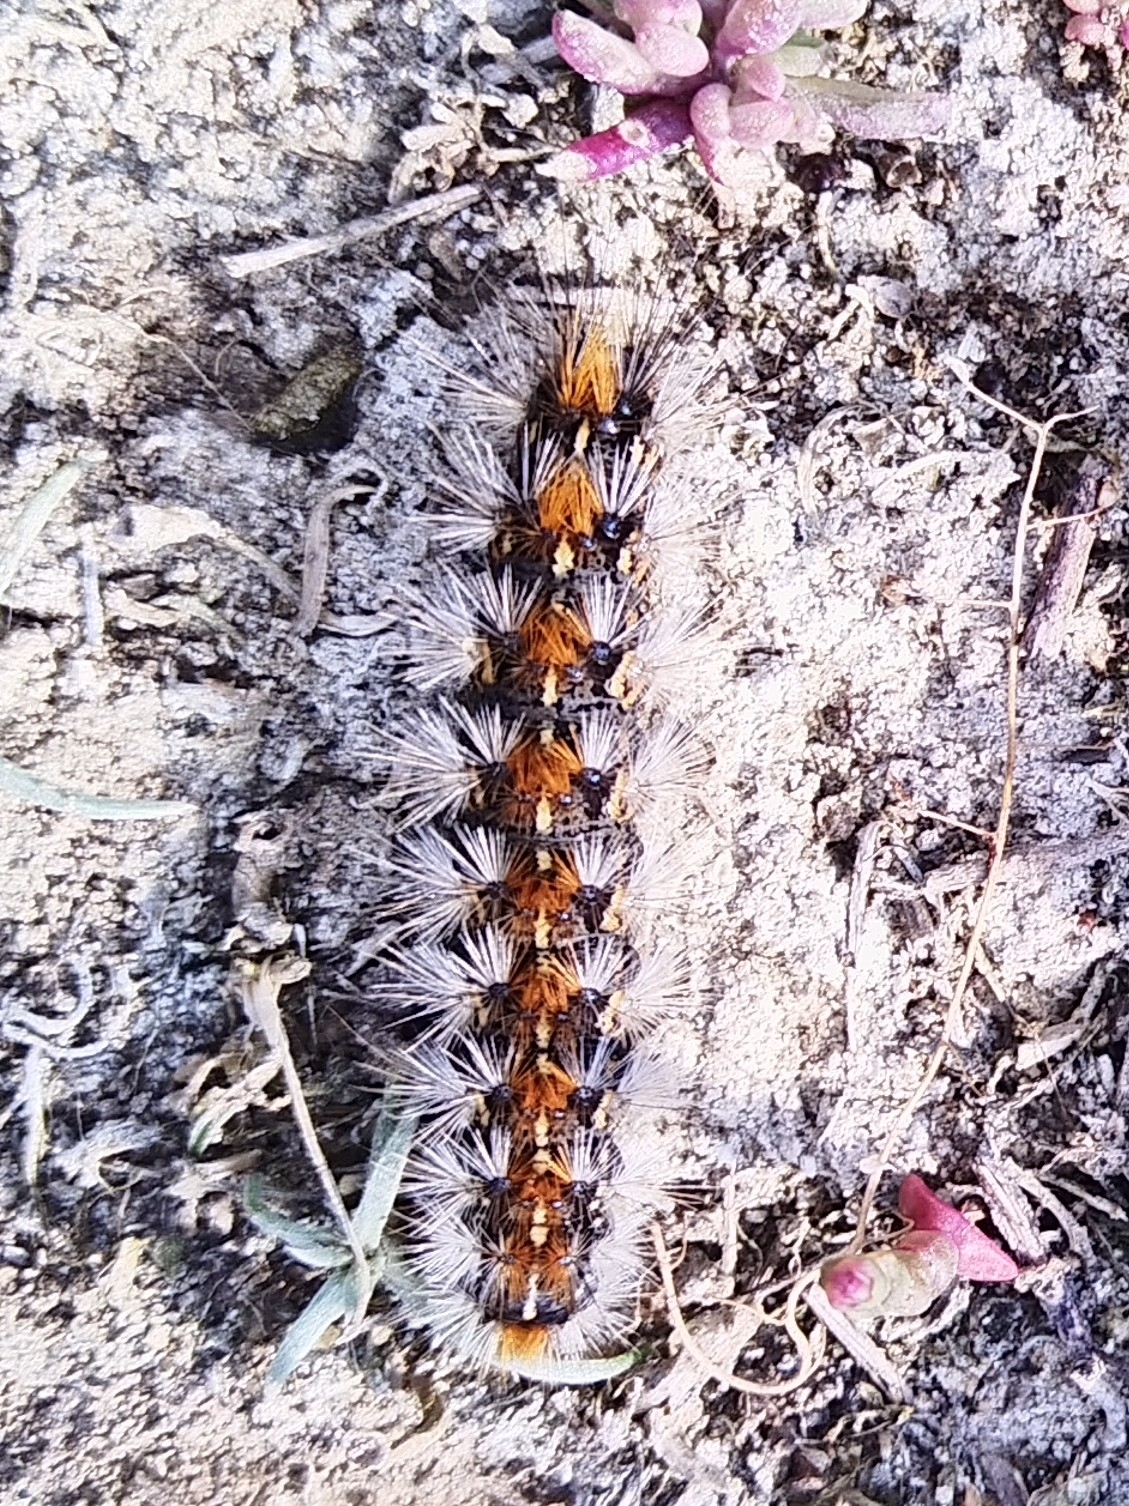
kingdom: Animalia
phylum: Arthropoda
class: Insecta
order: Lepidoptera
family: Erebidae
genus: Euplagia
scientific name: Euplagia quadripunctaria
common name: Jersey tiger
